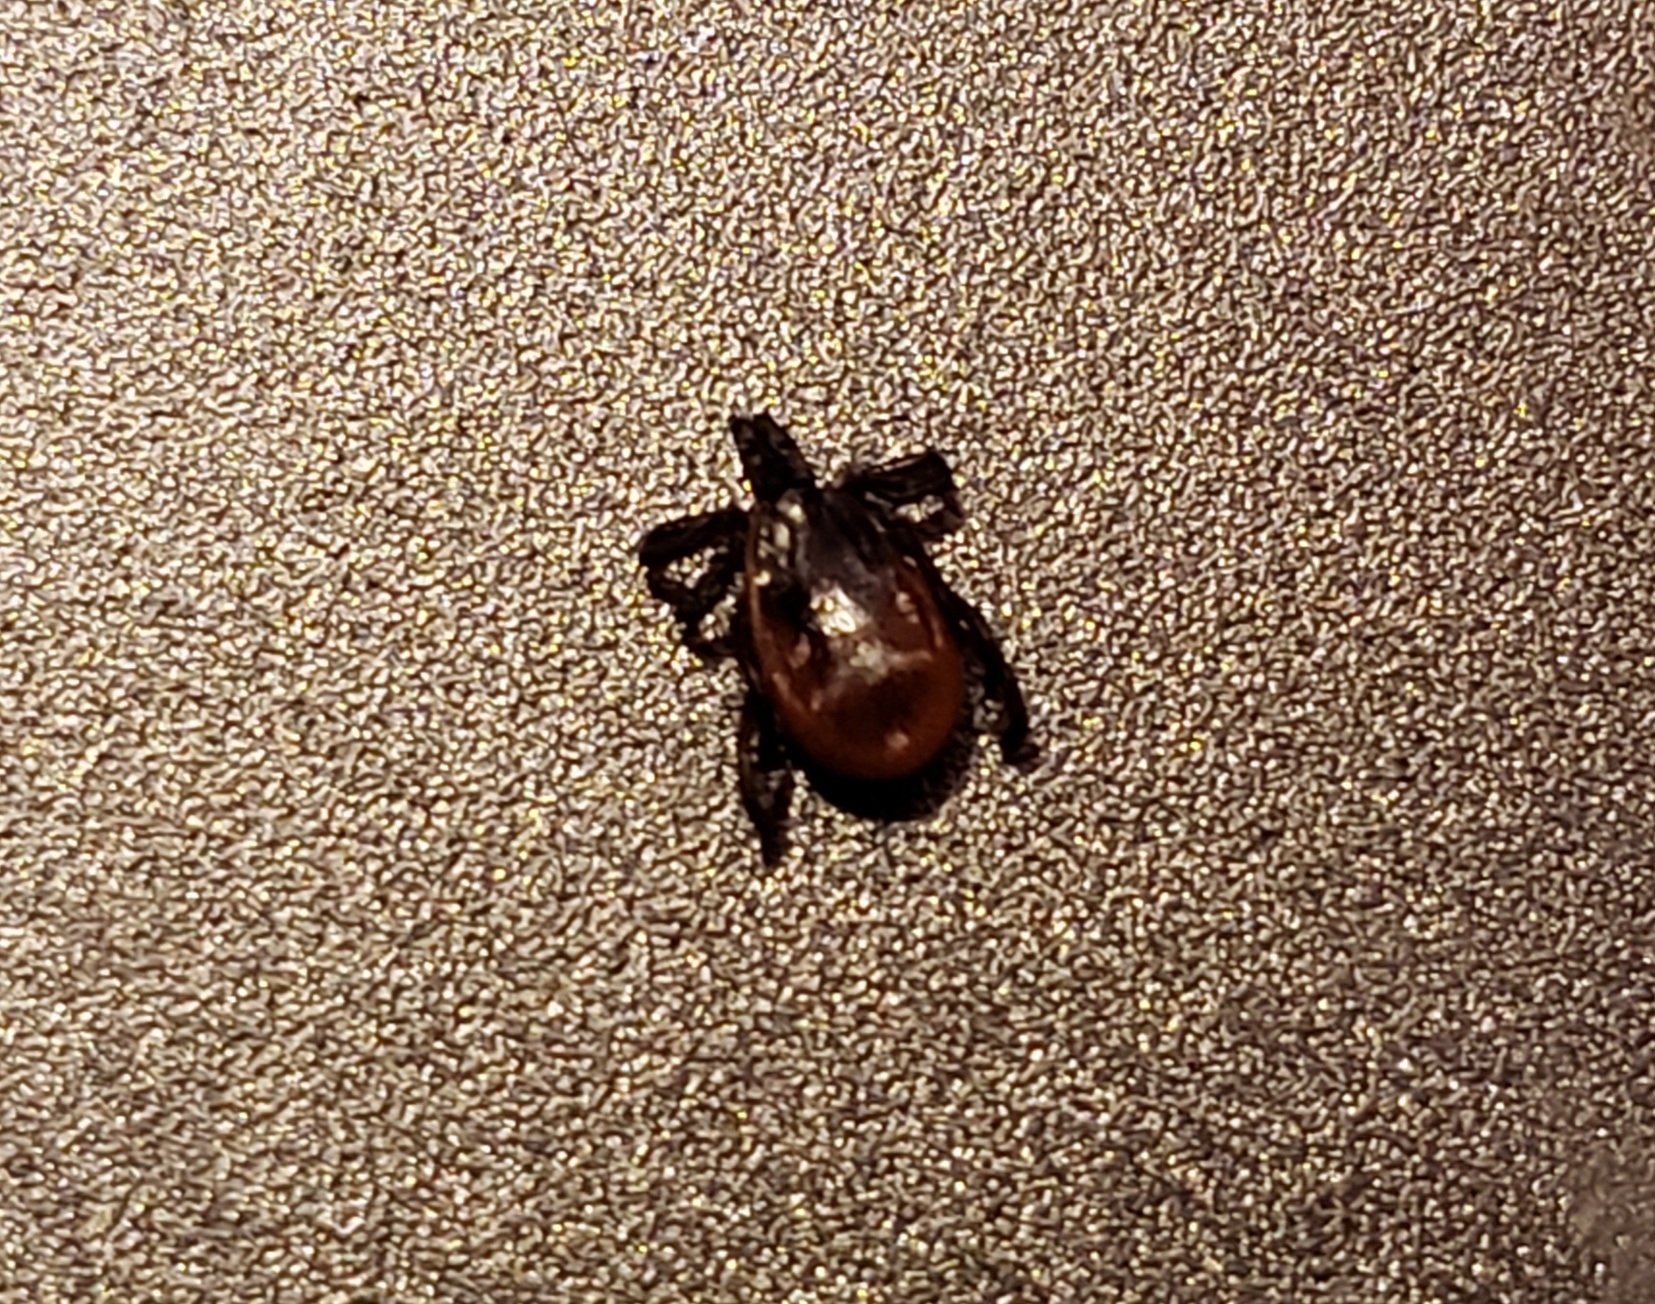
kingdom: Animalia
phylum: Arthropoda
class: Arachnida
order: Ixodida
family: Ixodidae
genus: Ixodes
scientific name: Ixodes scapularis
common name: Black legged tick
